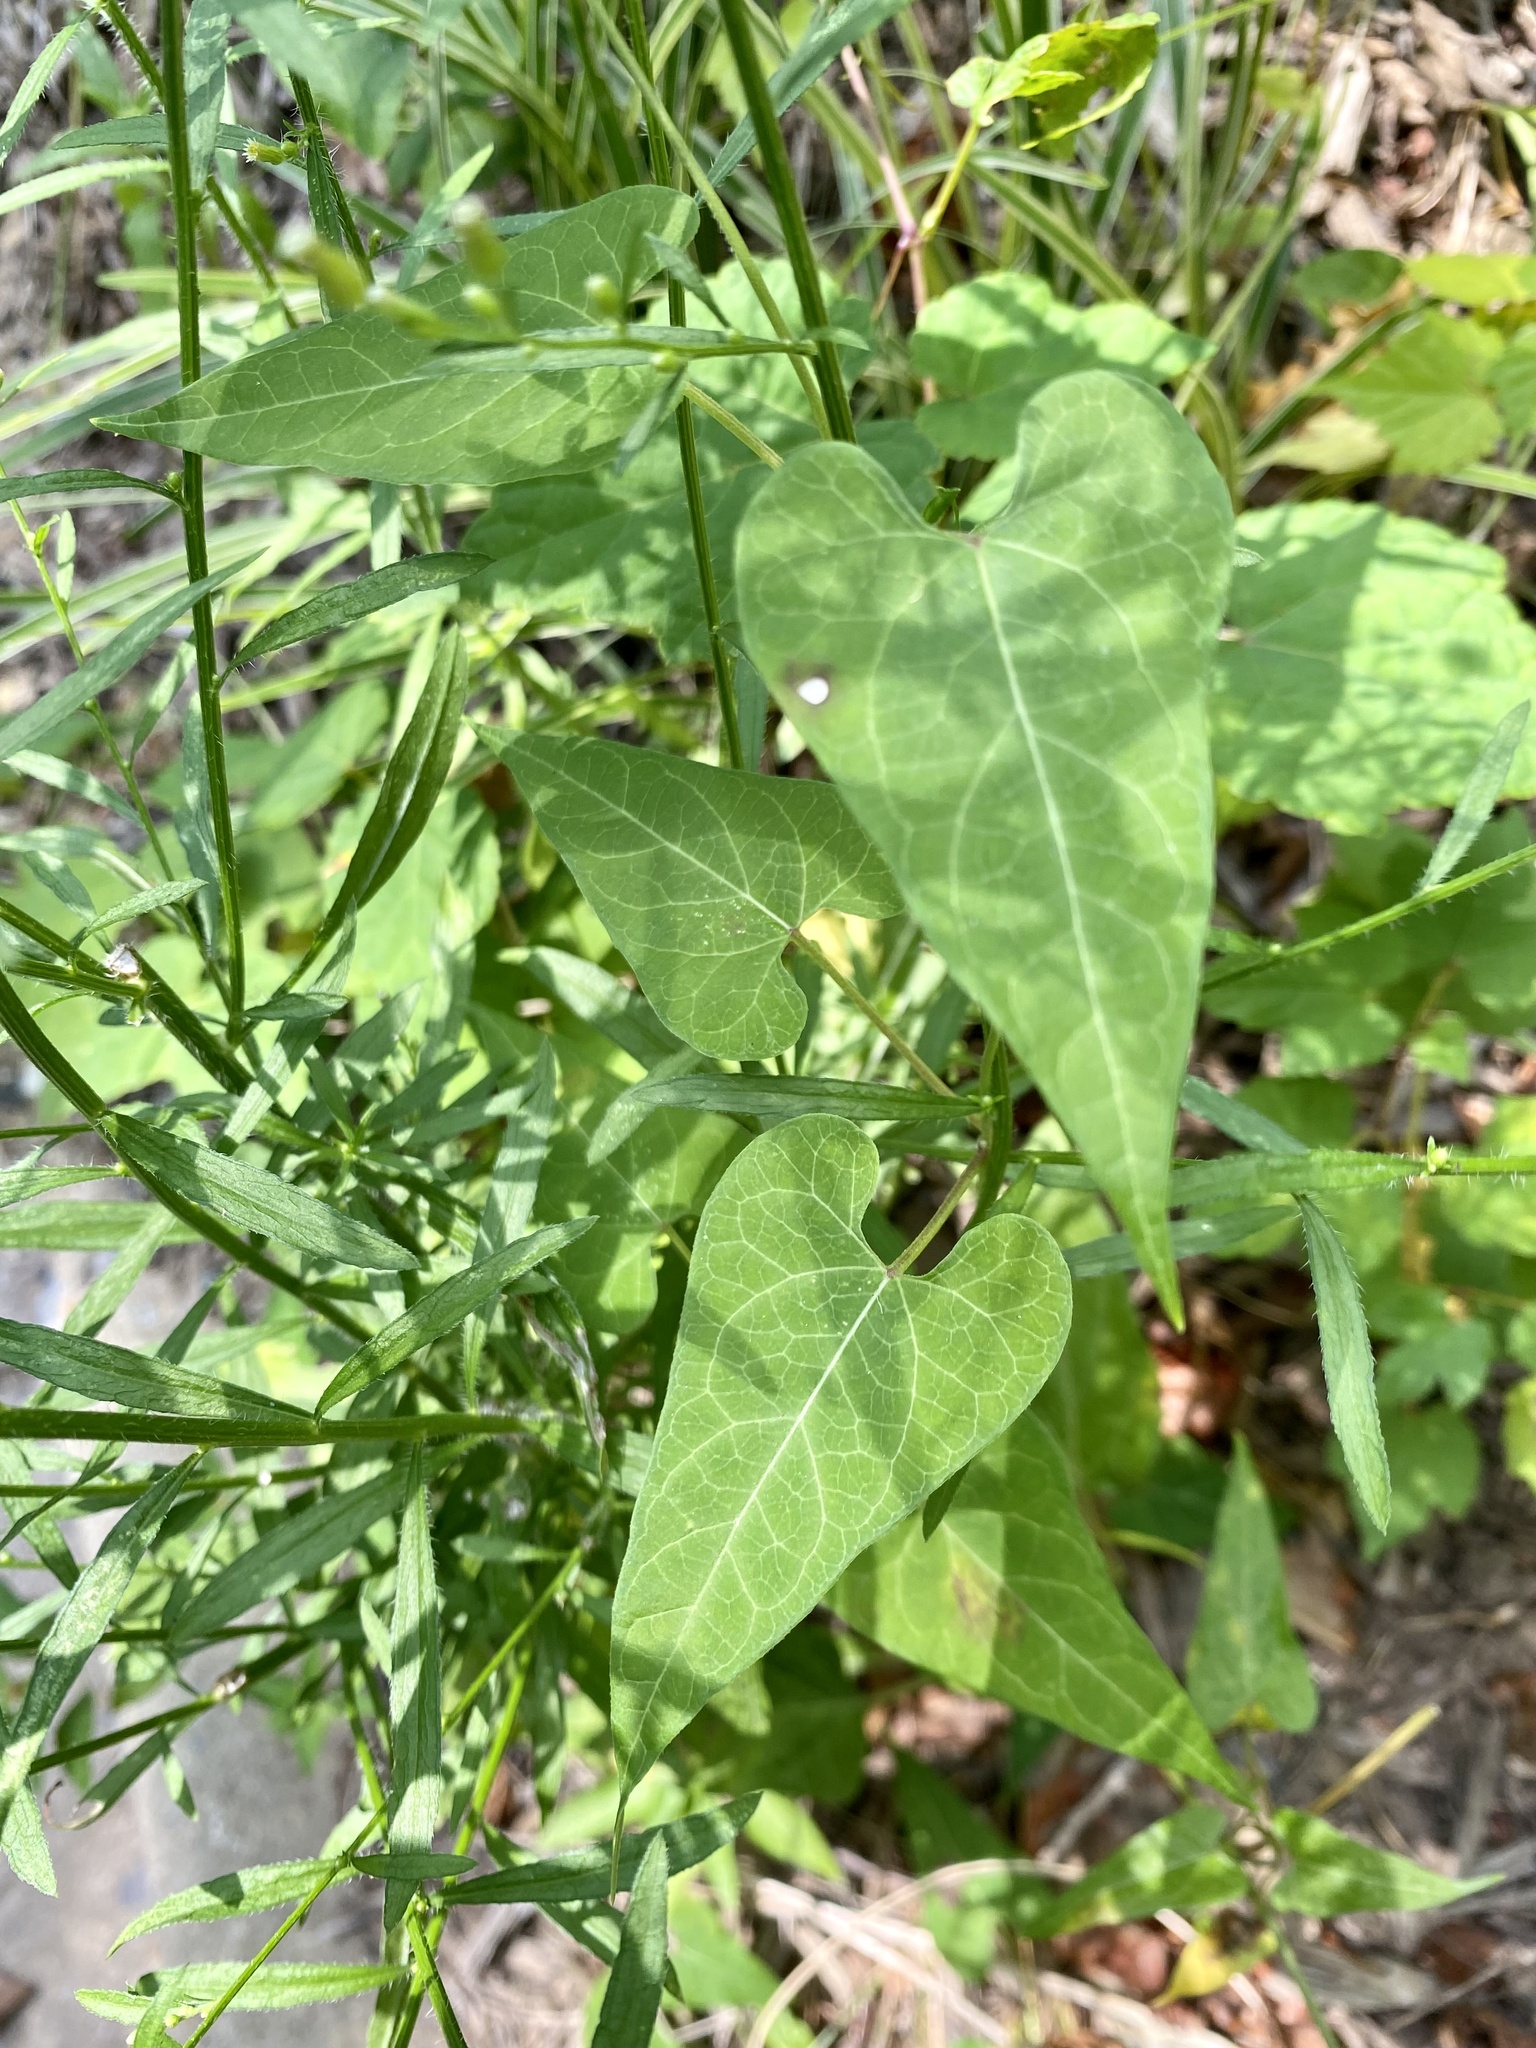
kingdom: Plantae
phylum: Tracheophyta
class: Magnoliopsida
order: Gentianales
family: Apocynaceae
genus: Cynanchum
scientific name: Cynanchum laeve
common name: Sandvine
